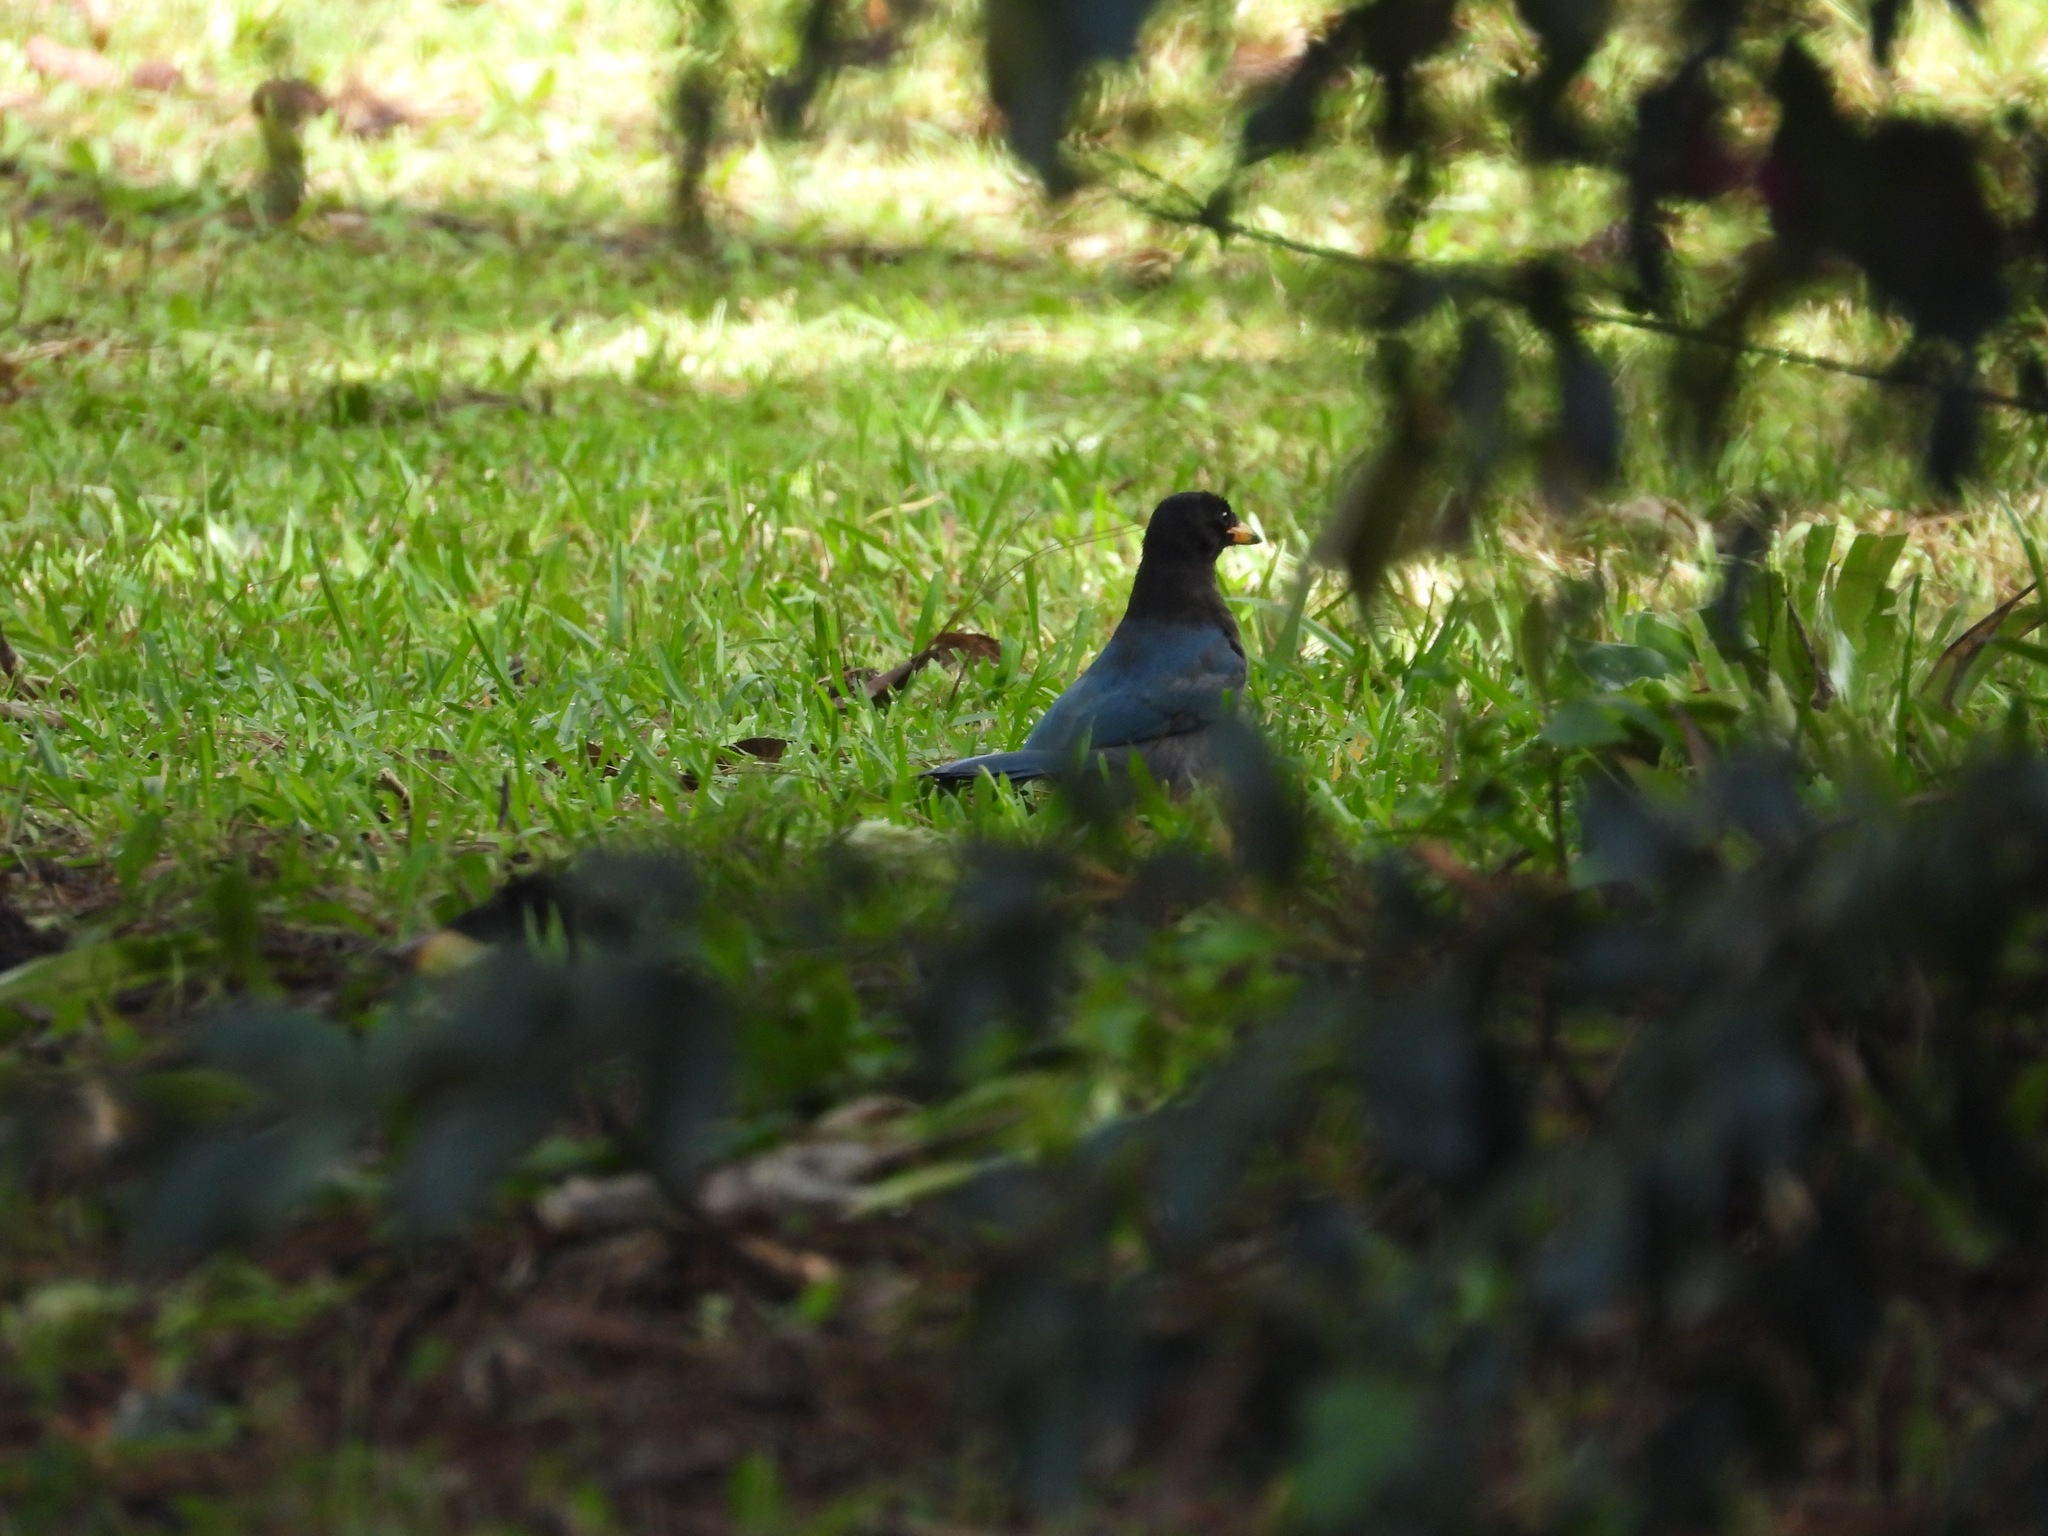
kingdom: Animalia
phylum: Chordata
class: Aves
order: Passeriformes
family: Corvidae
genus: Cyanocorax
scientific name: Cyanocorax melanocyaneus
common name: Bushy-crested jay
